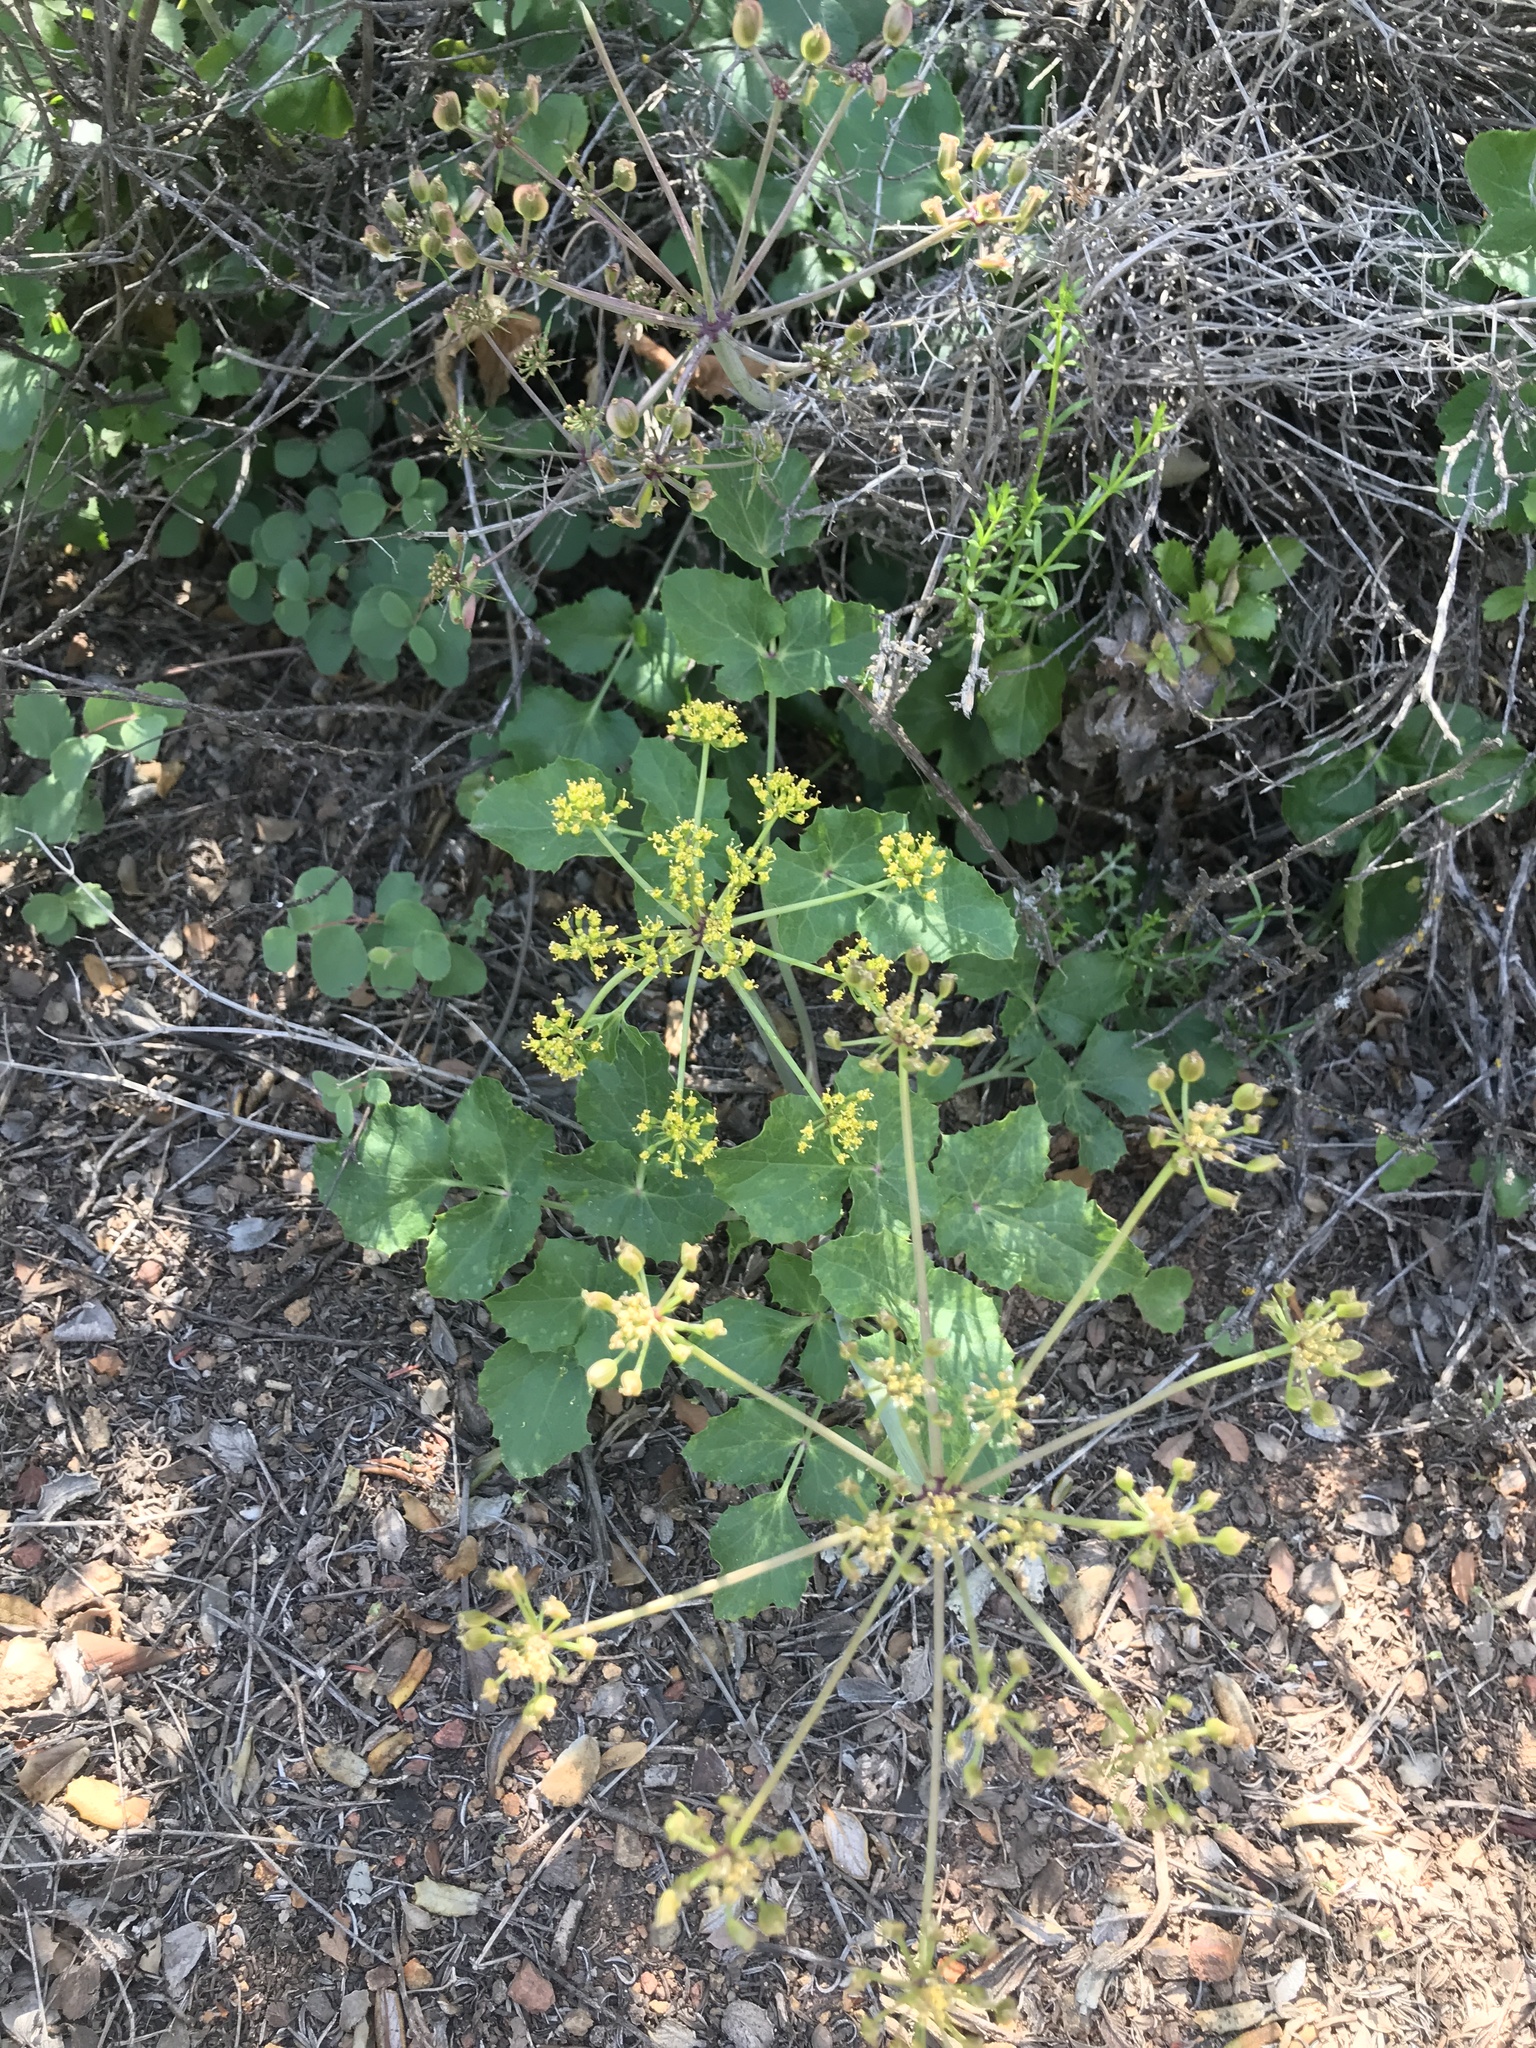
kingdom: Plantae
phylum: Tracheophyta
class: Magnoliopsida
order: Apiales
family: Apiaceae
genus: Tauschia
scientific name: Tauschia arguta
